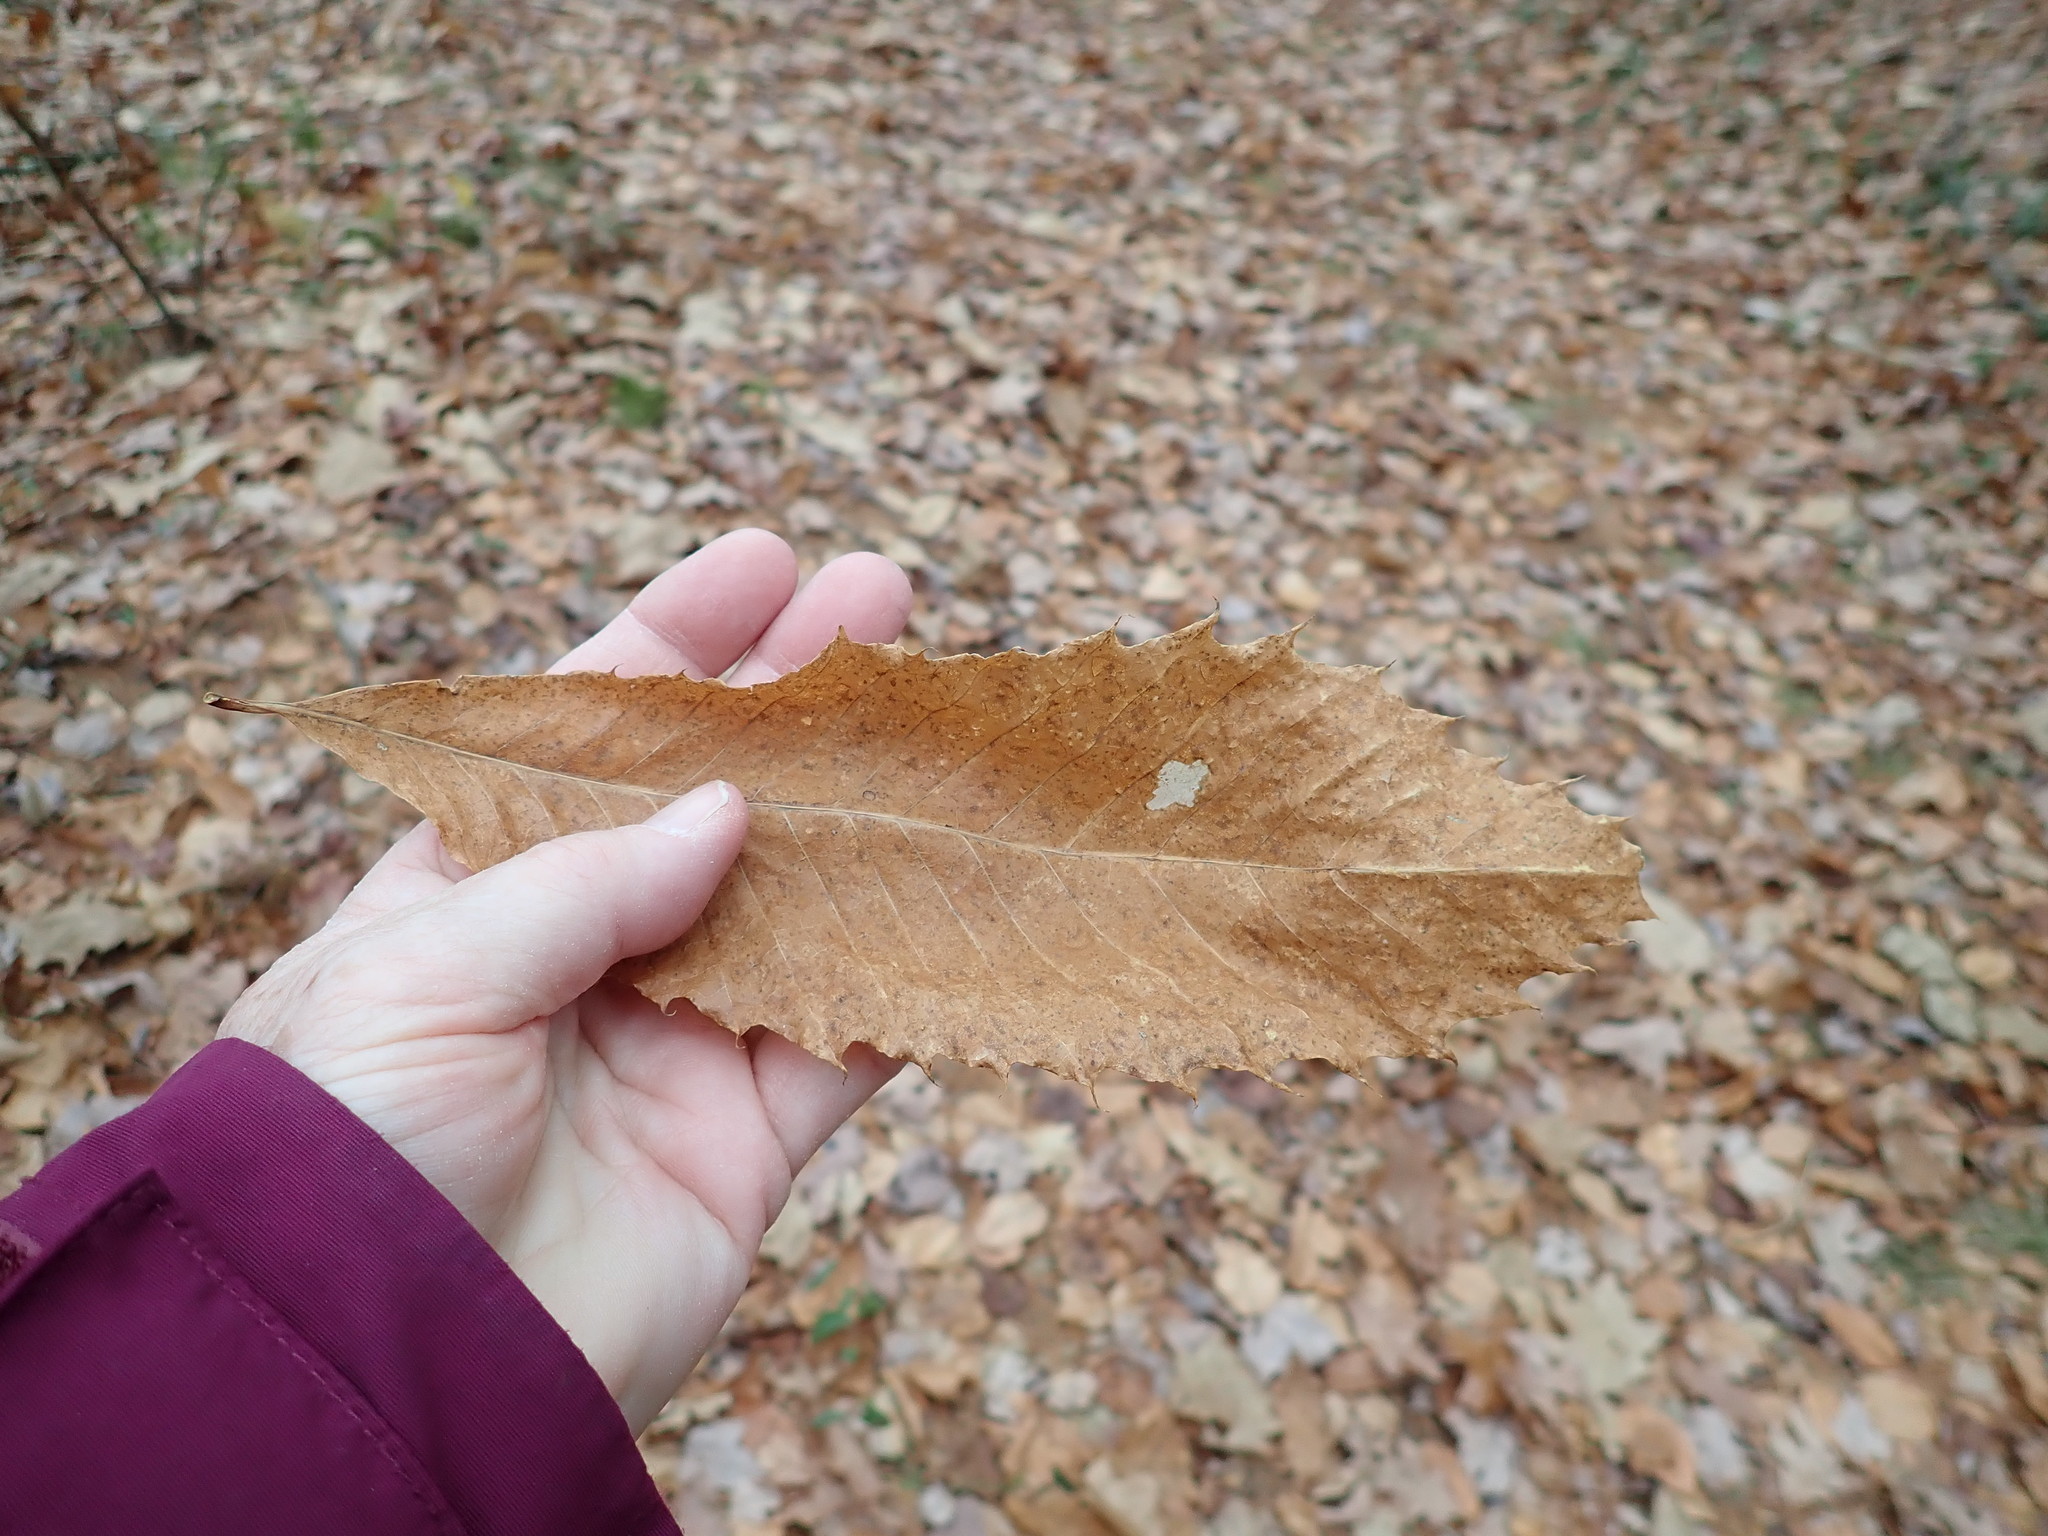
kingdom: Plantae
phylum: Tracheophyta
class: Magnoliopsida
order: Fagales
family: Fagaceae
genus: Castanea
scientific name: Castanea dentata
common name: American chestnut
